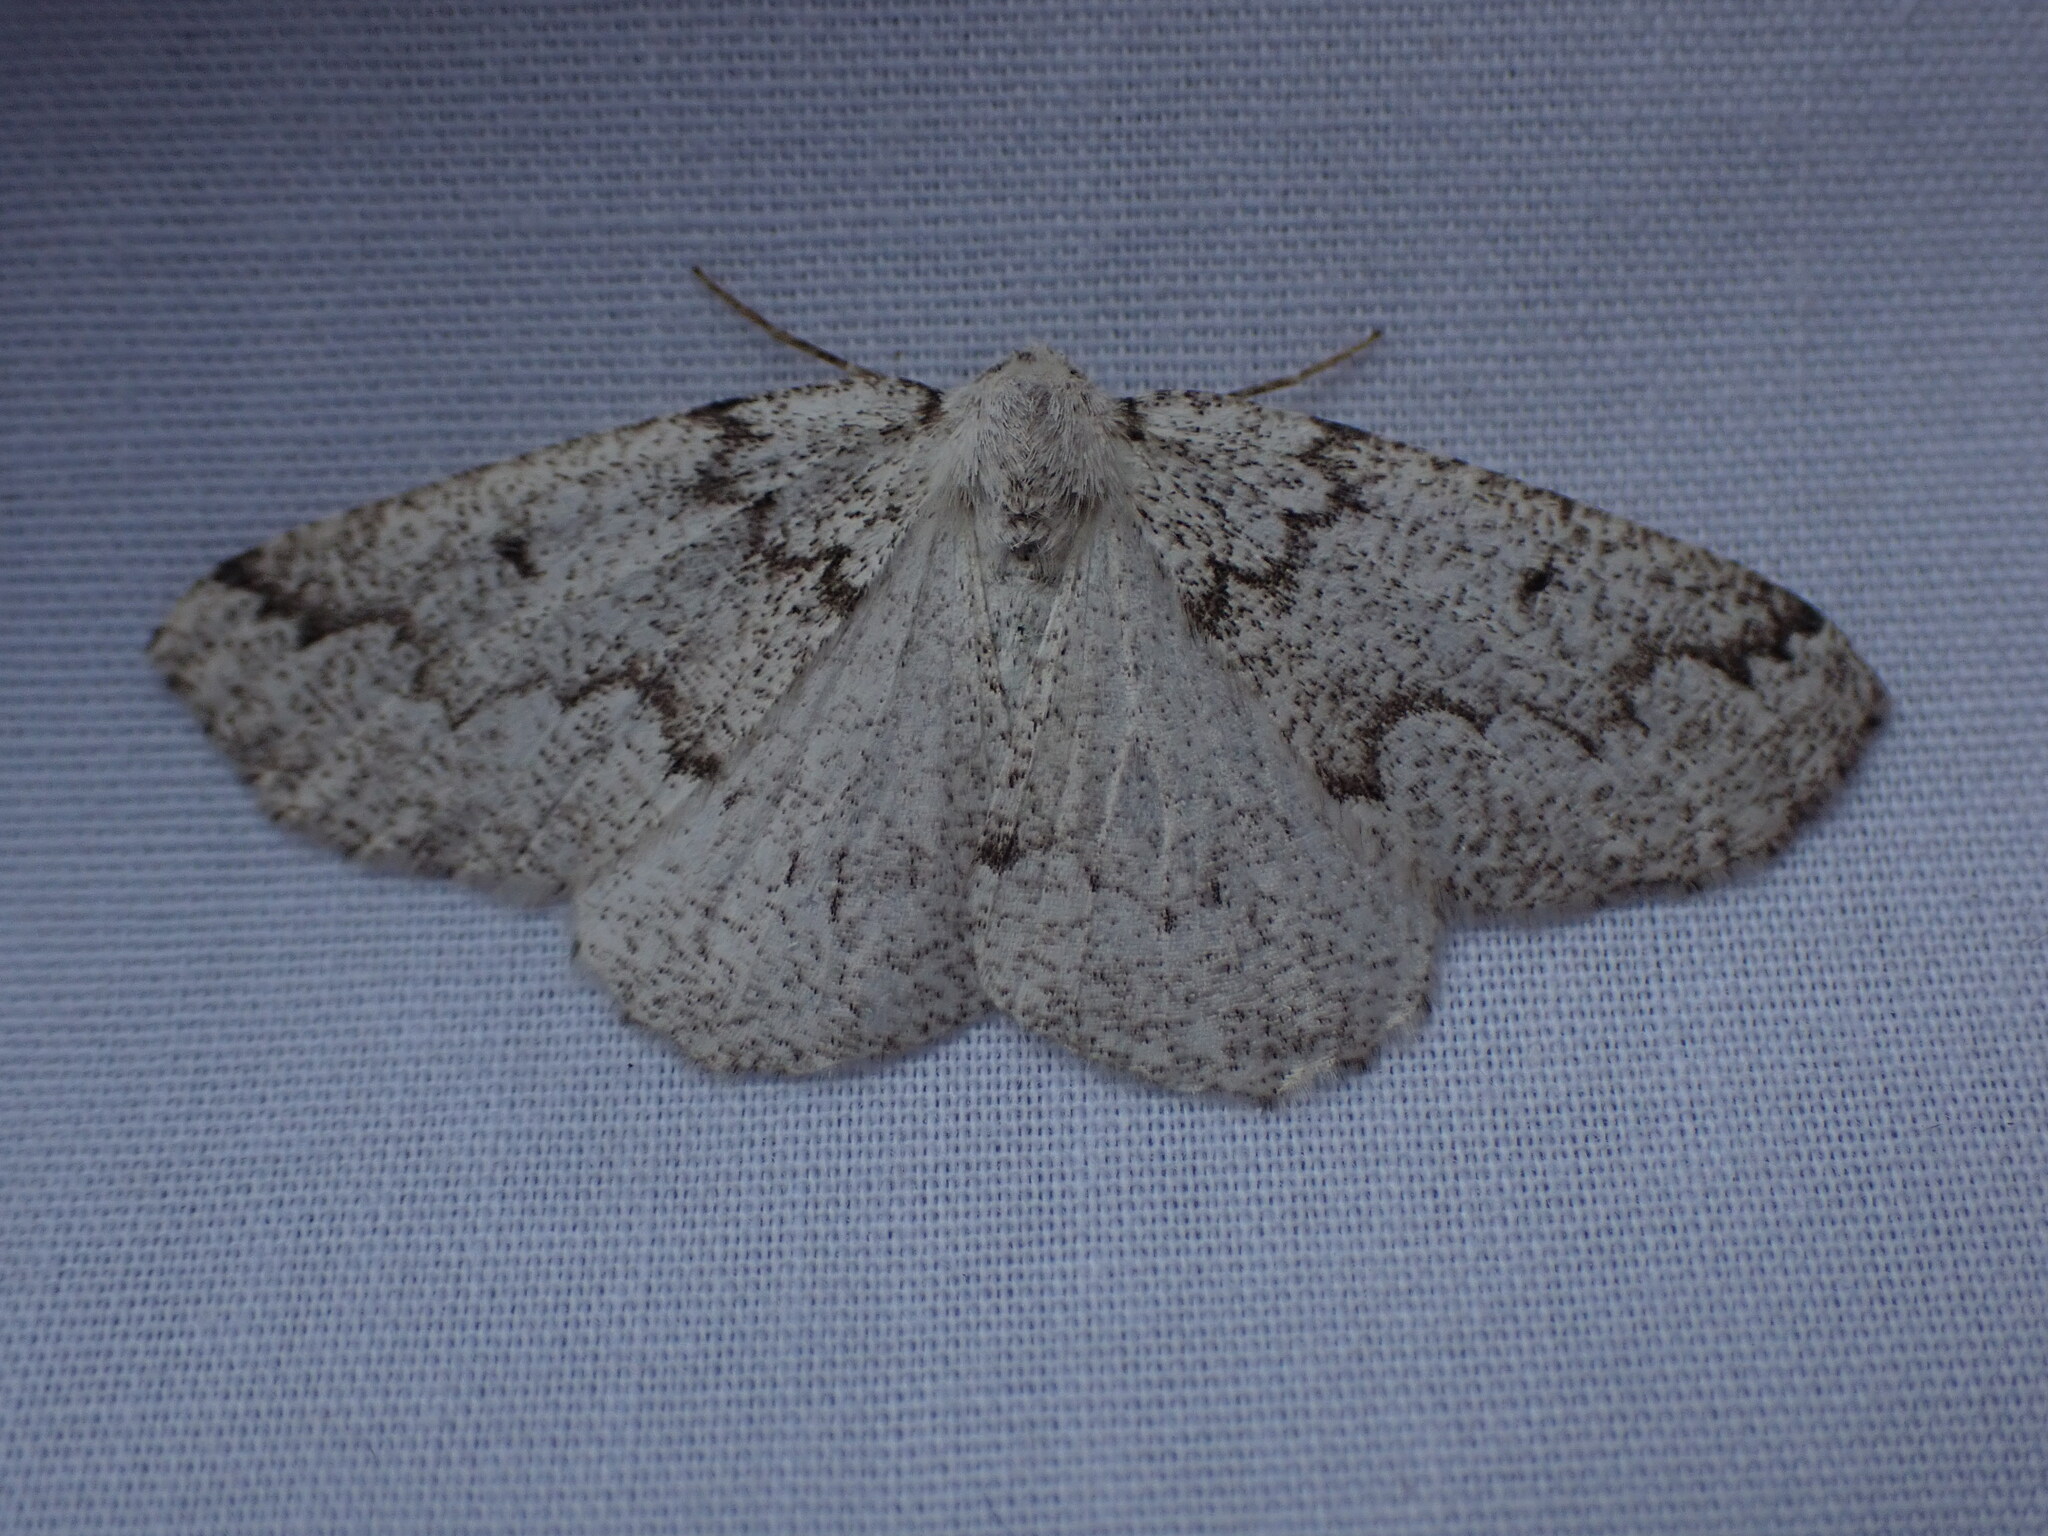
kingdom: Animalia
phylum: Arthropoda
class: Insecta
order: Lepidoptera
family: Geometridae
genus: Sabulodes
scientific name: Sabulodes
